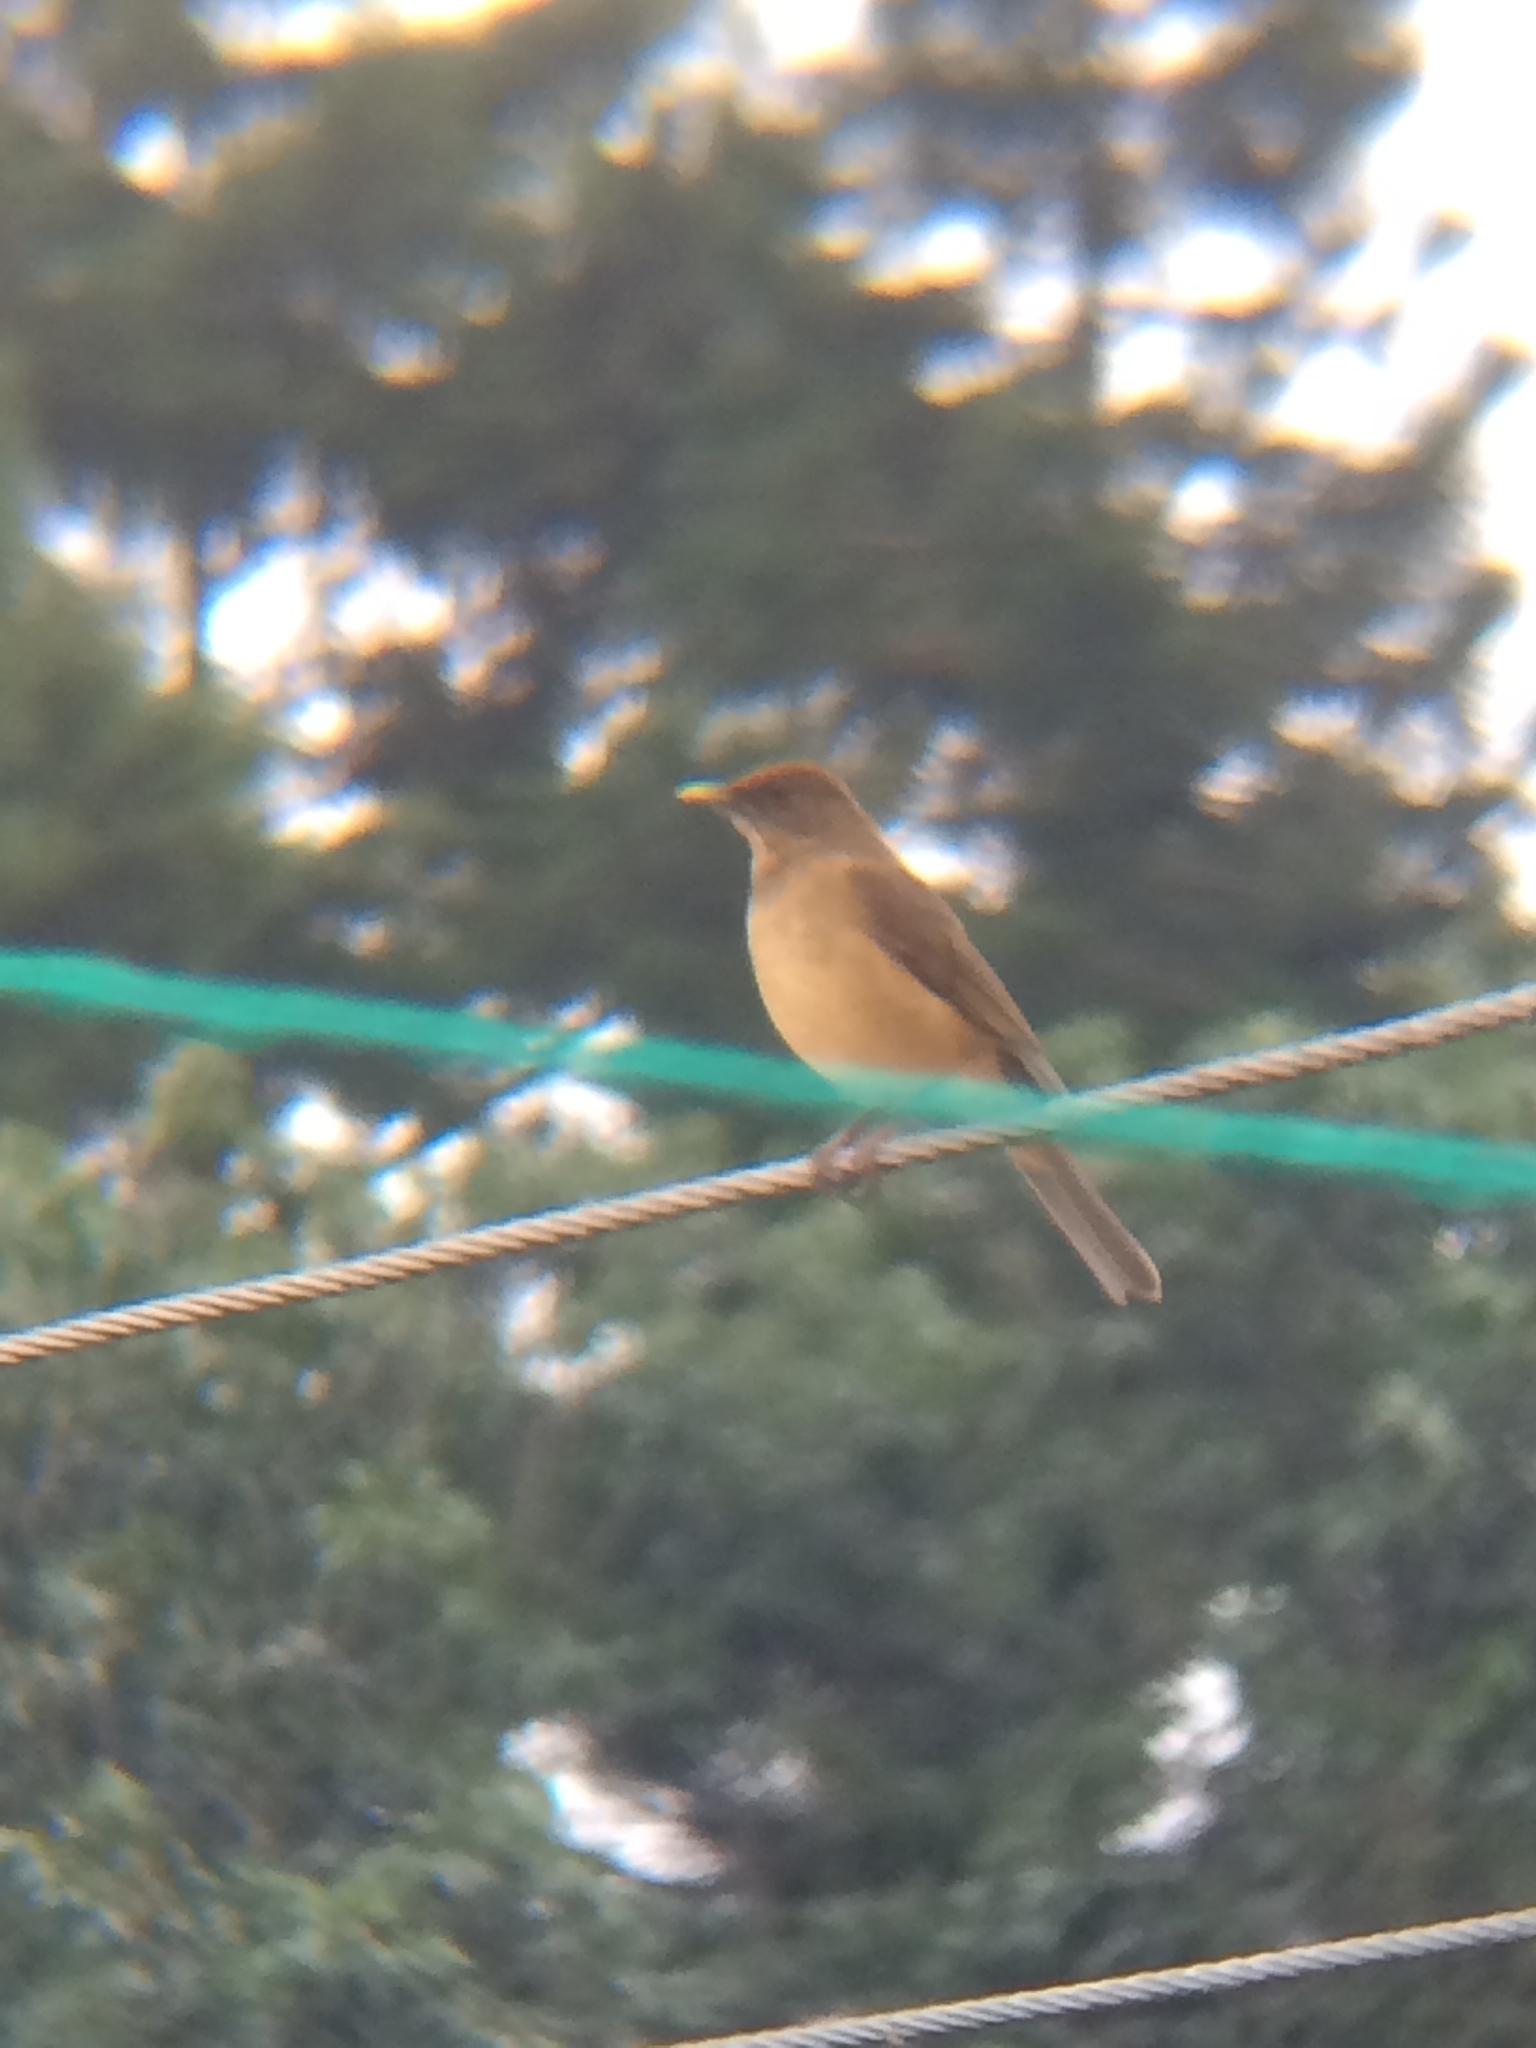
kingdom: Animalia
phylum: Chordata
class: Aves
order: Passeriformes
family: Turdidae
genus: Turdus
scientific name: Turdus grayi
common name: Clay-colored thrush
